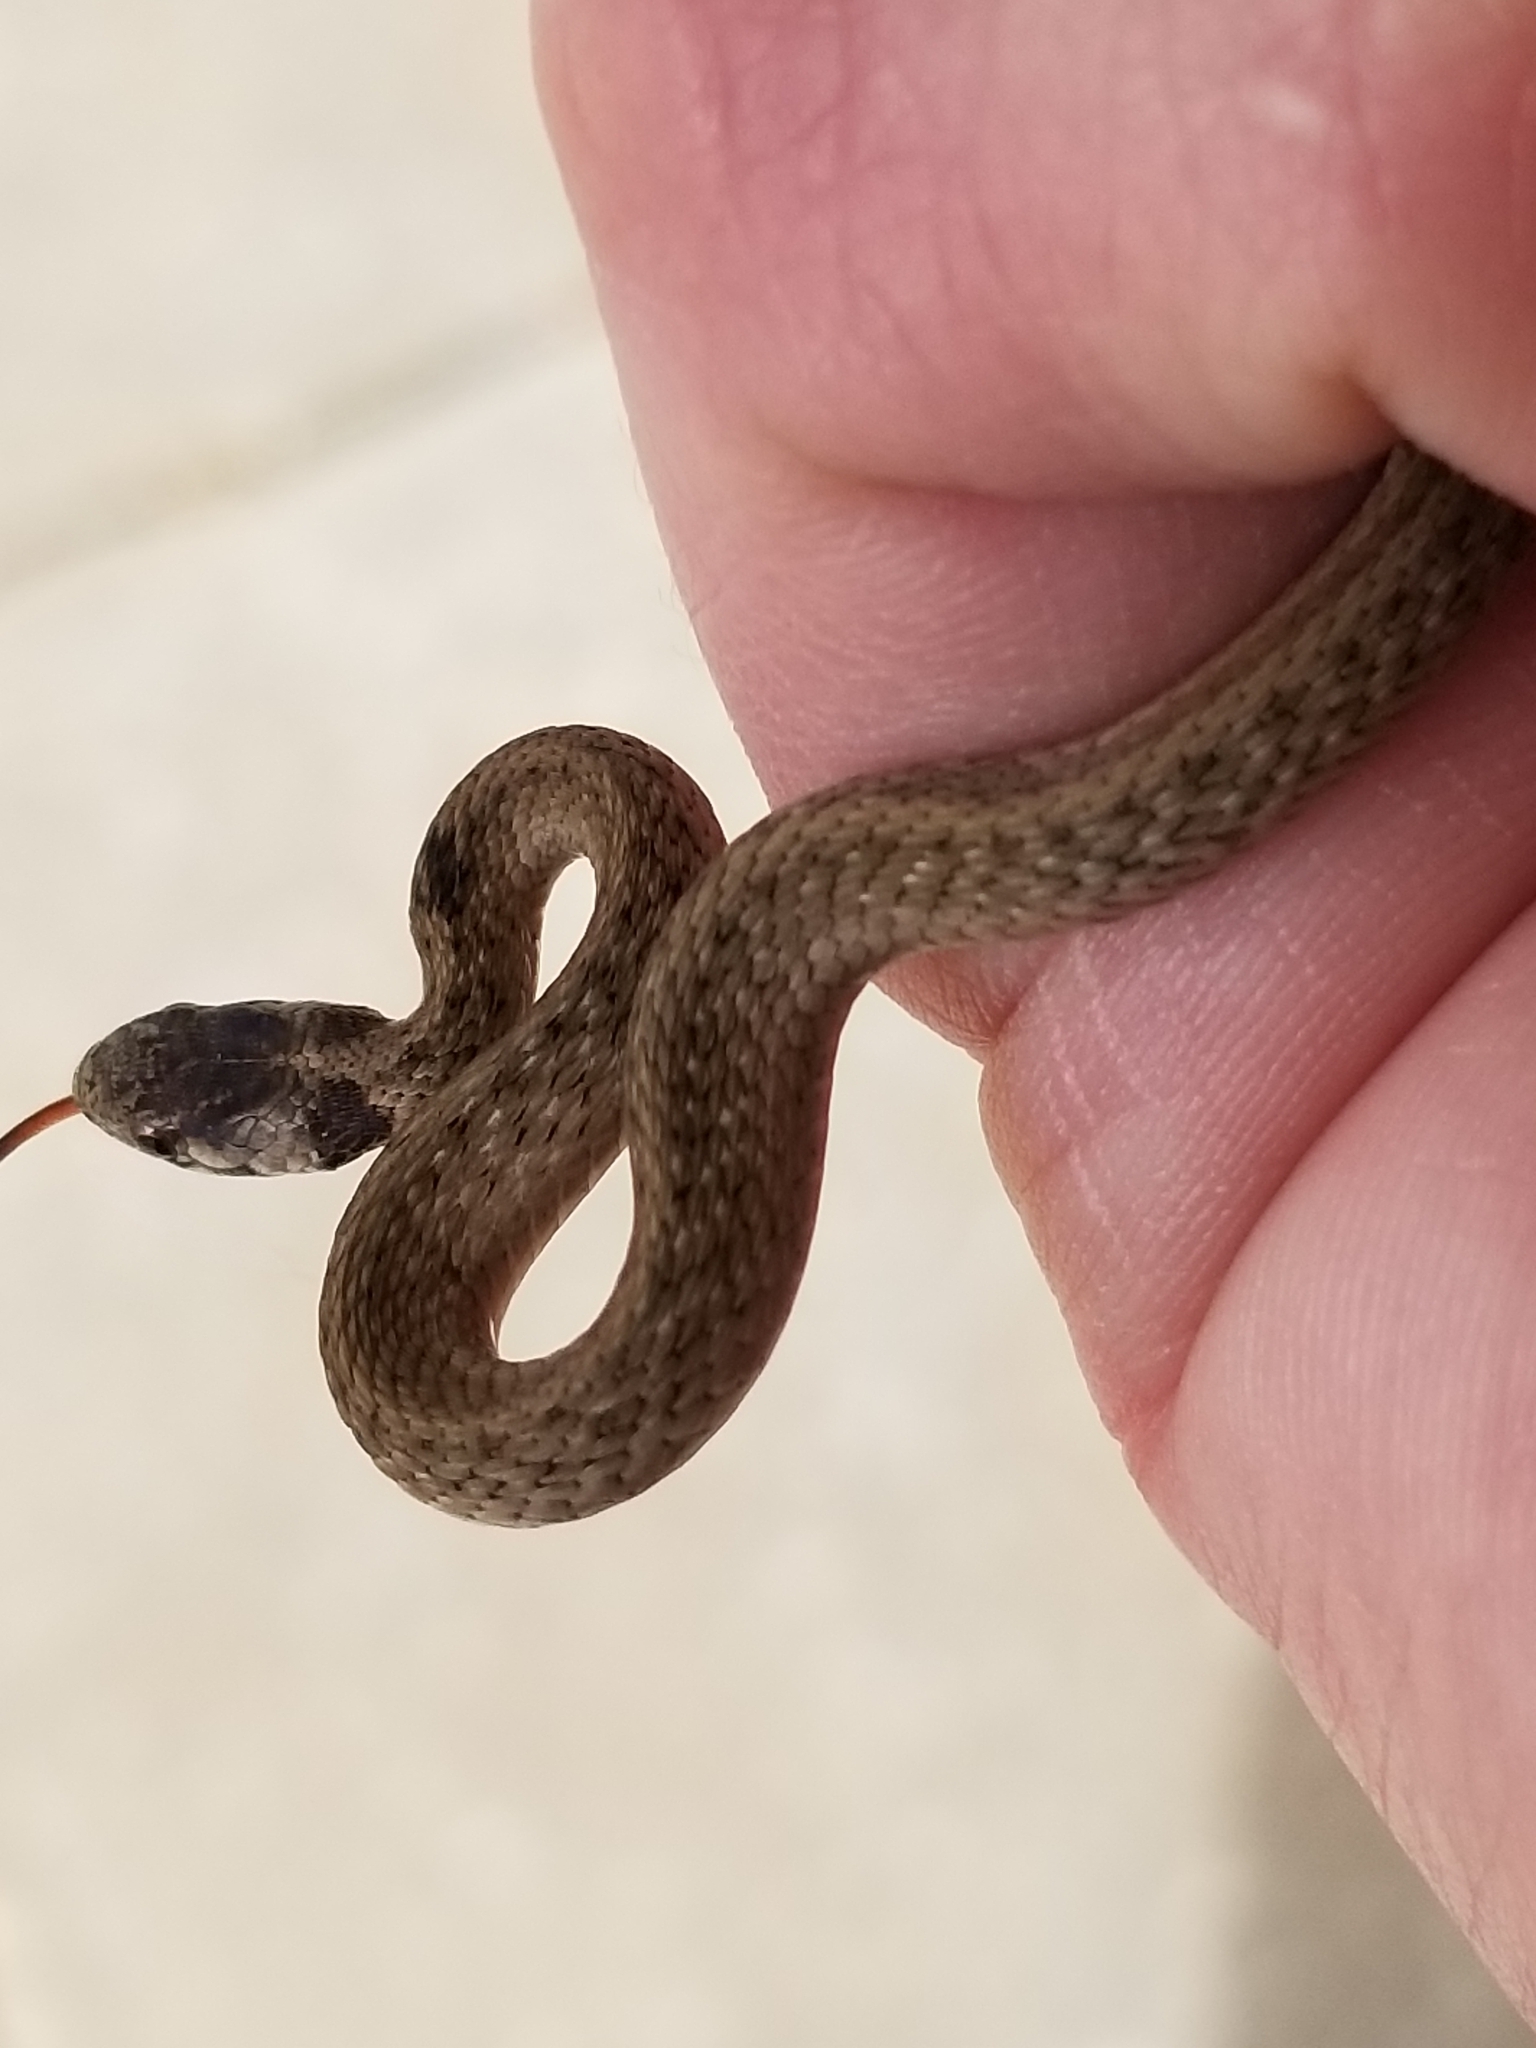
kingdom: Animalia
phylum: Chordata
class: Squamata
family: Colubridae
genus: Storeria
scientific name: Storeria dekayi
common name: (dekay’s) brown snake
